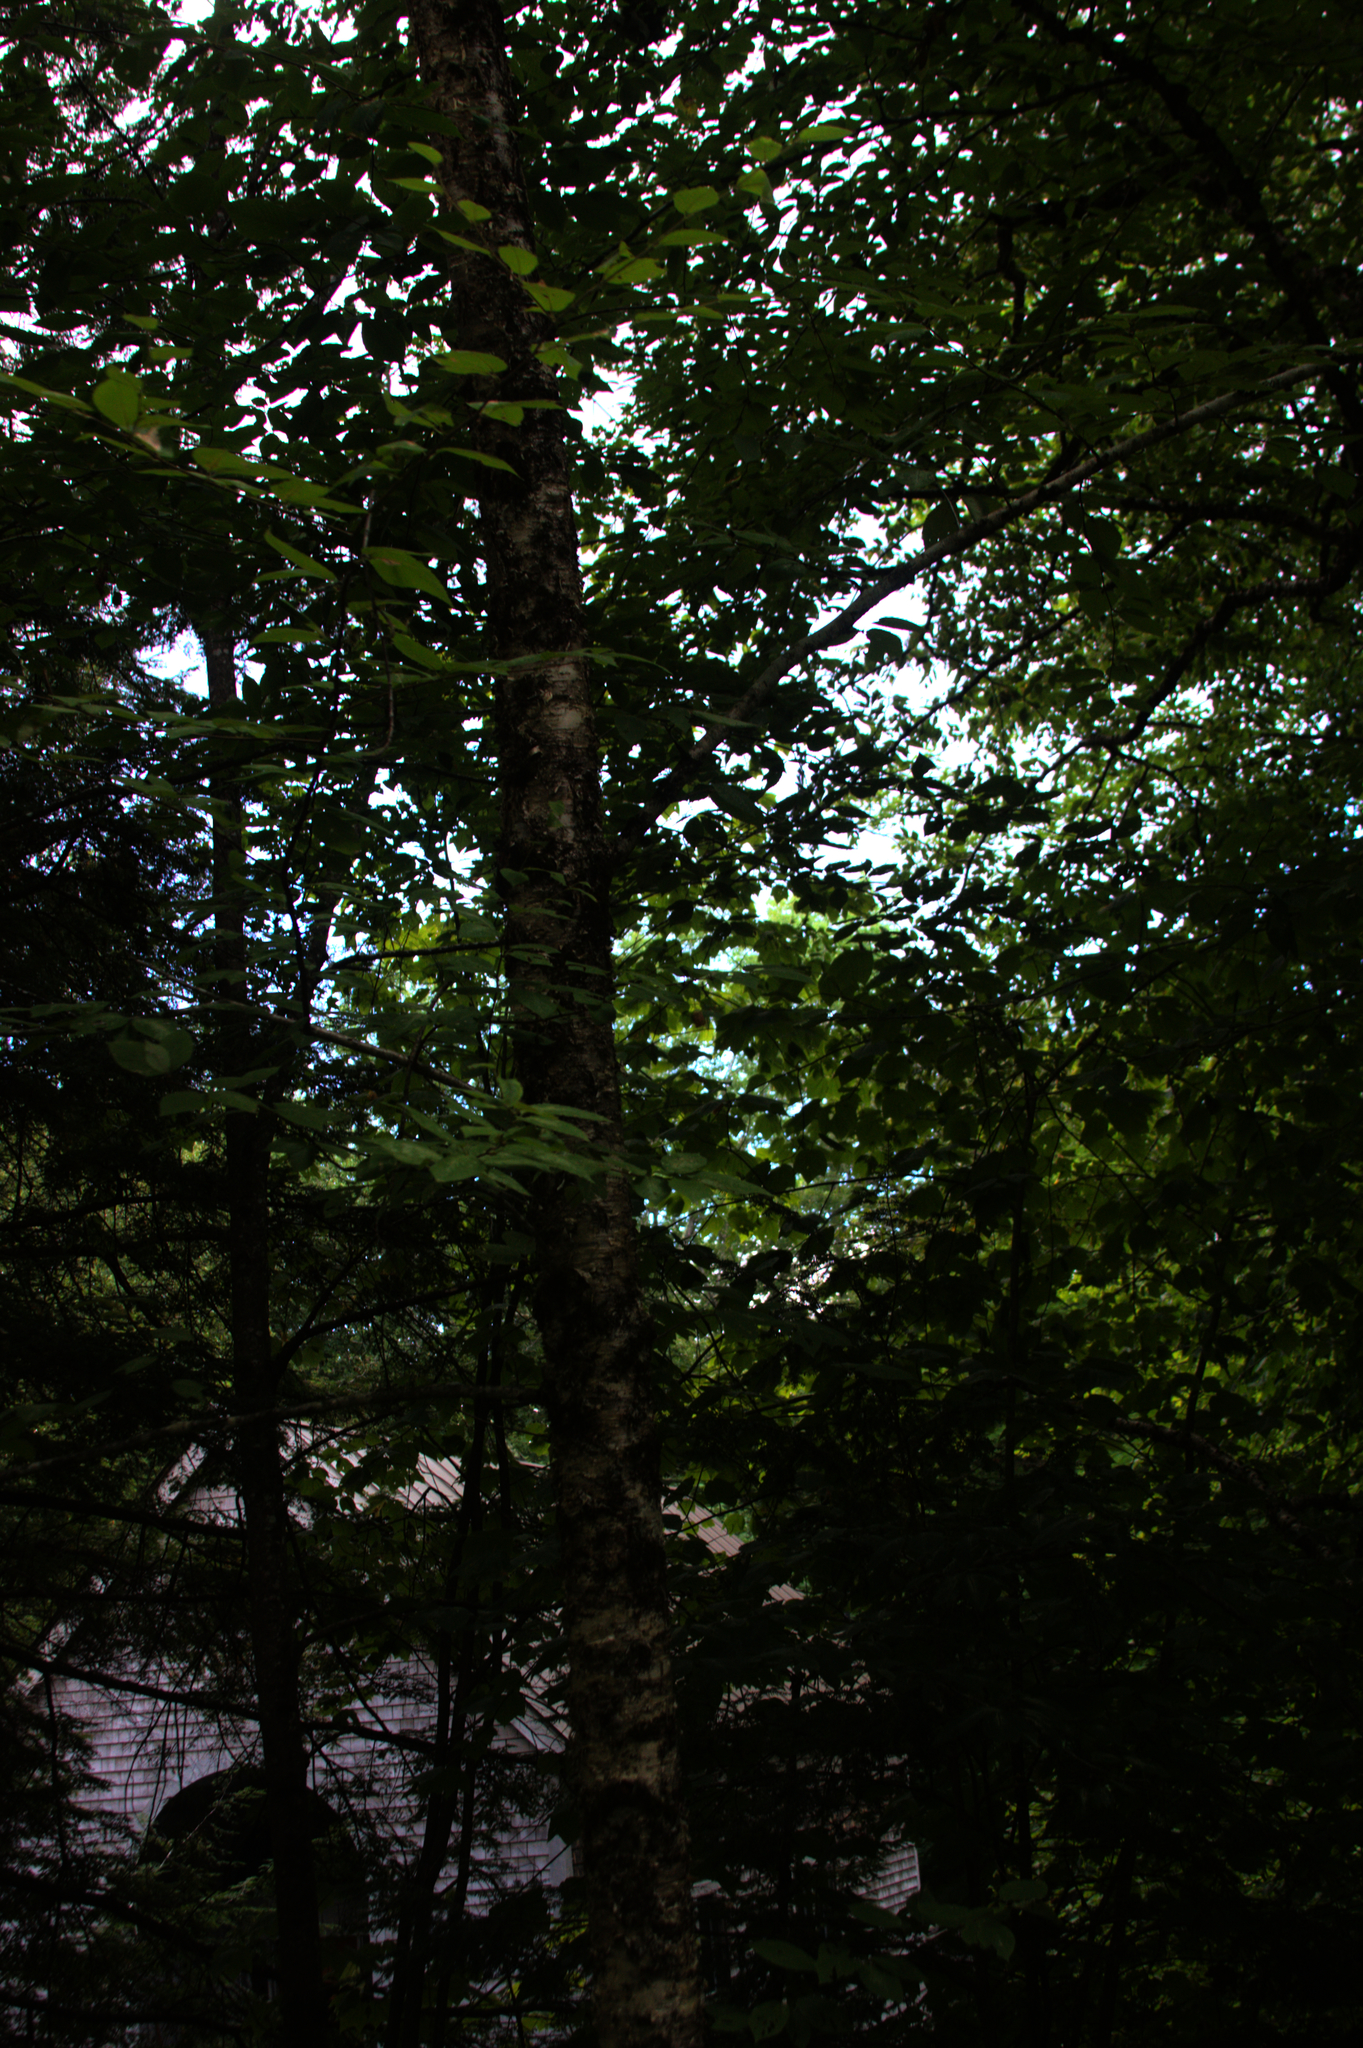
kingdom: Plantae
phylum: Tracheophyta
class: Magnoliopsida
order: Fagales
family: Betulaceae
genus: Betula
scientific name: Betula alleghaniensis
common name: Yellow birch
